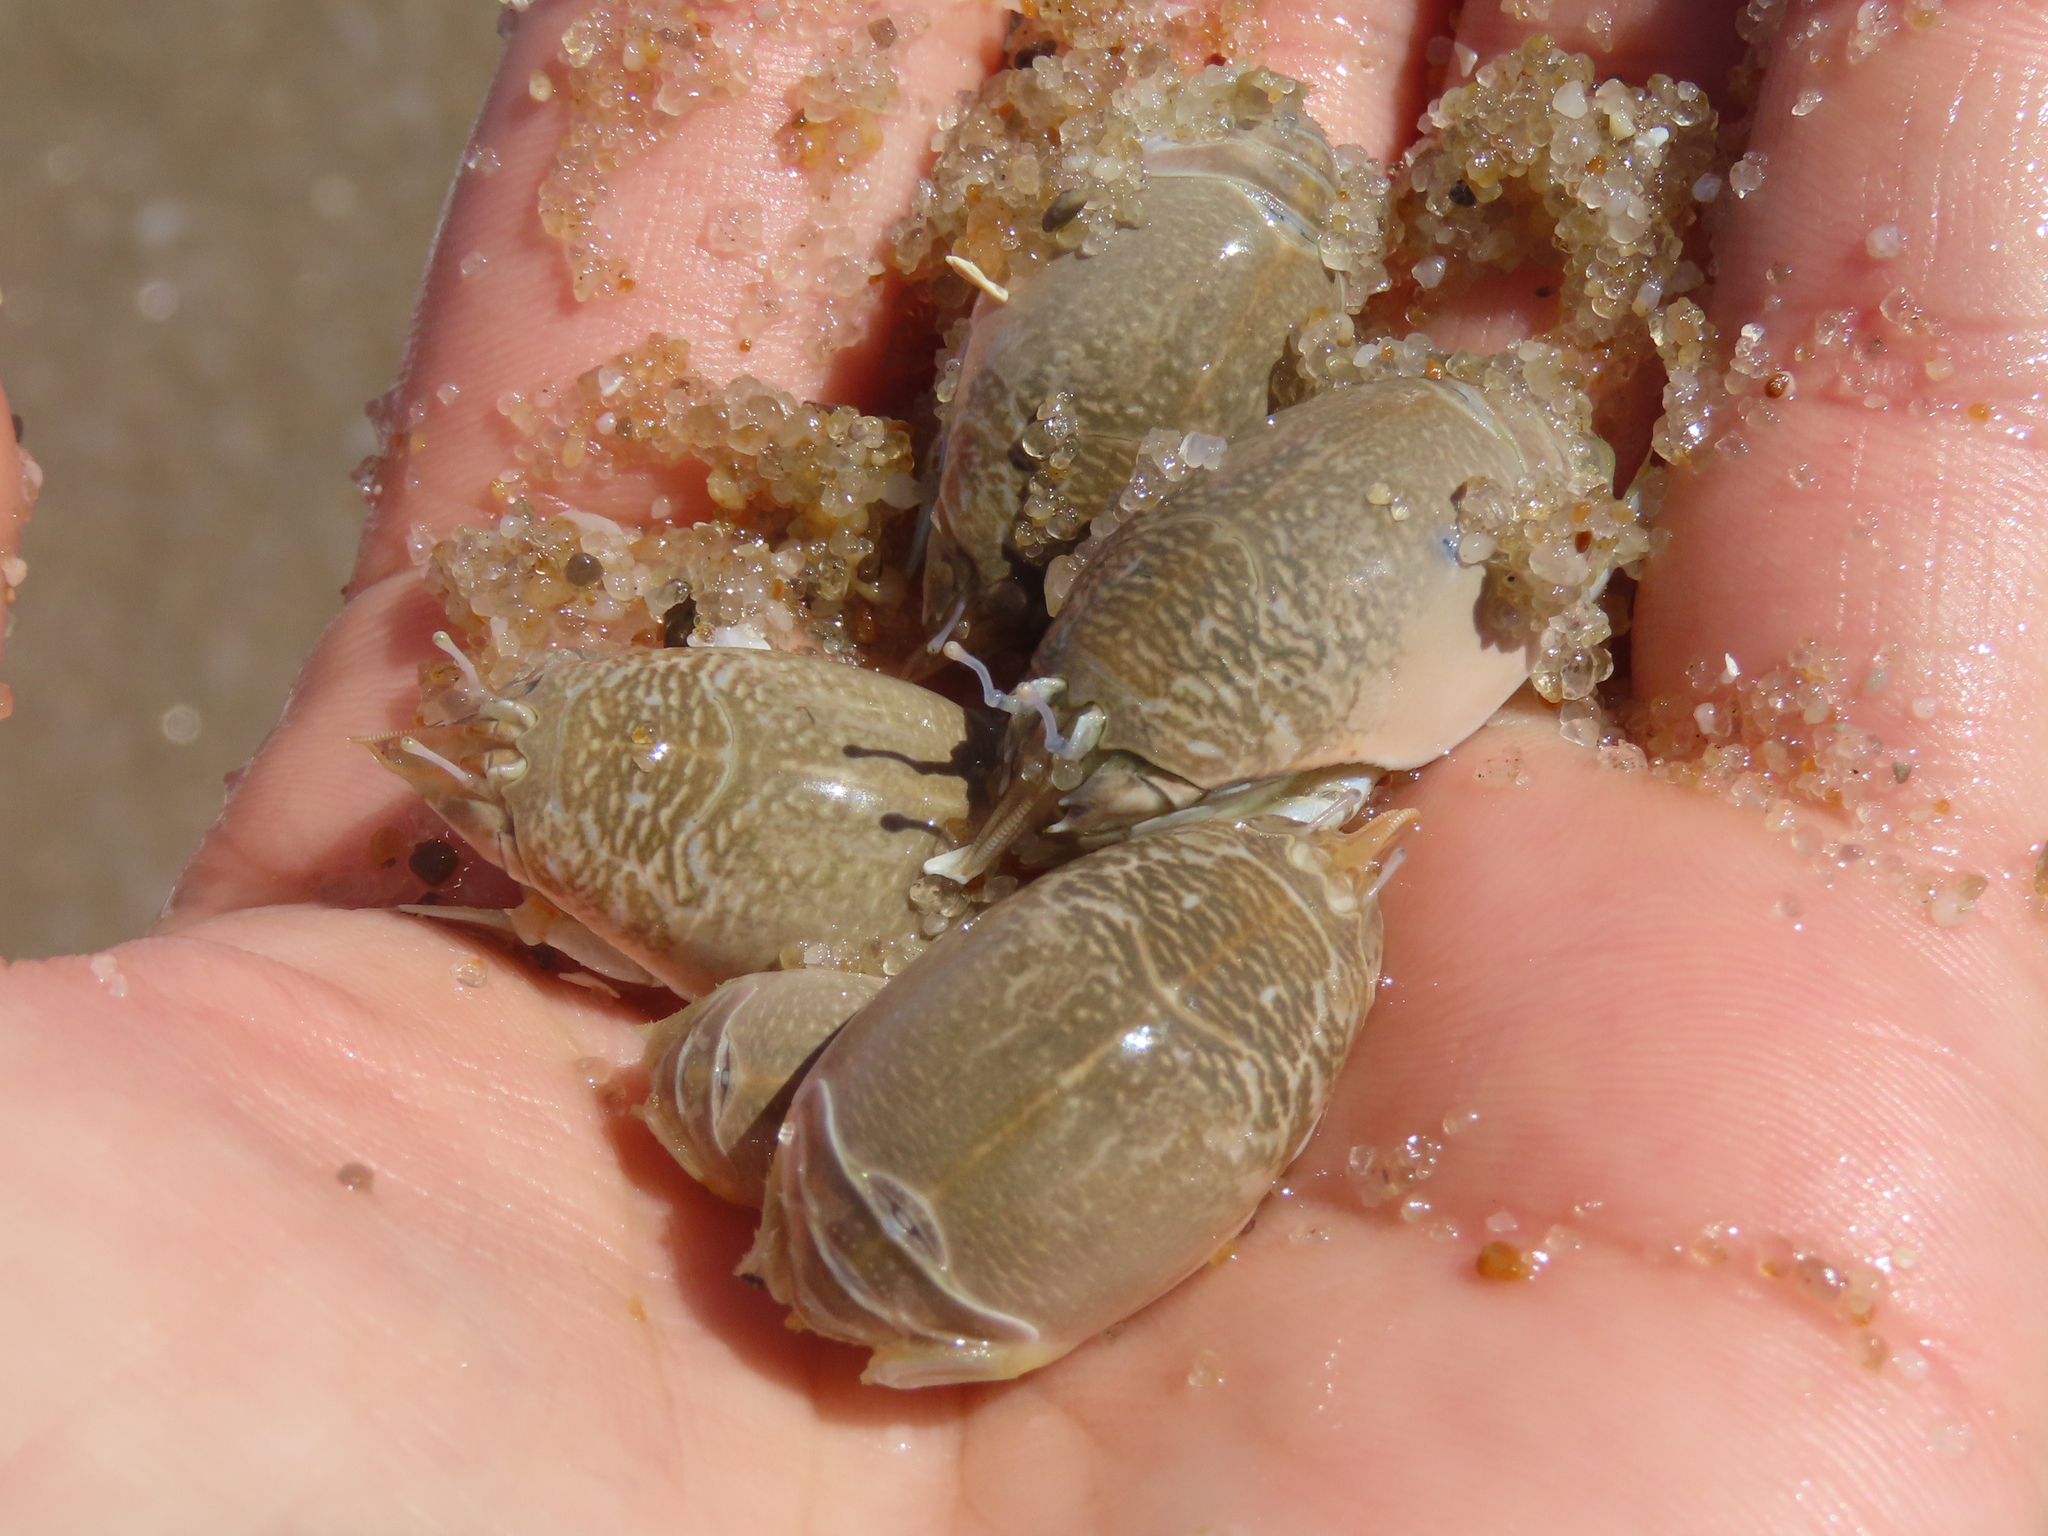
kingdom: Animalia
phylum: Arthropoda
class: Malacostraca
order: Decapoda
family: Hippidae
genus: Emerita
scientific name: Emerita talpoida
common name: Atlantic sand crab
